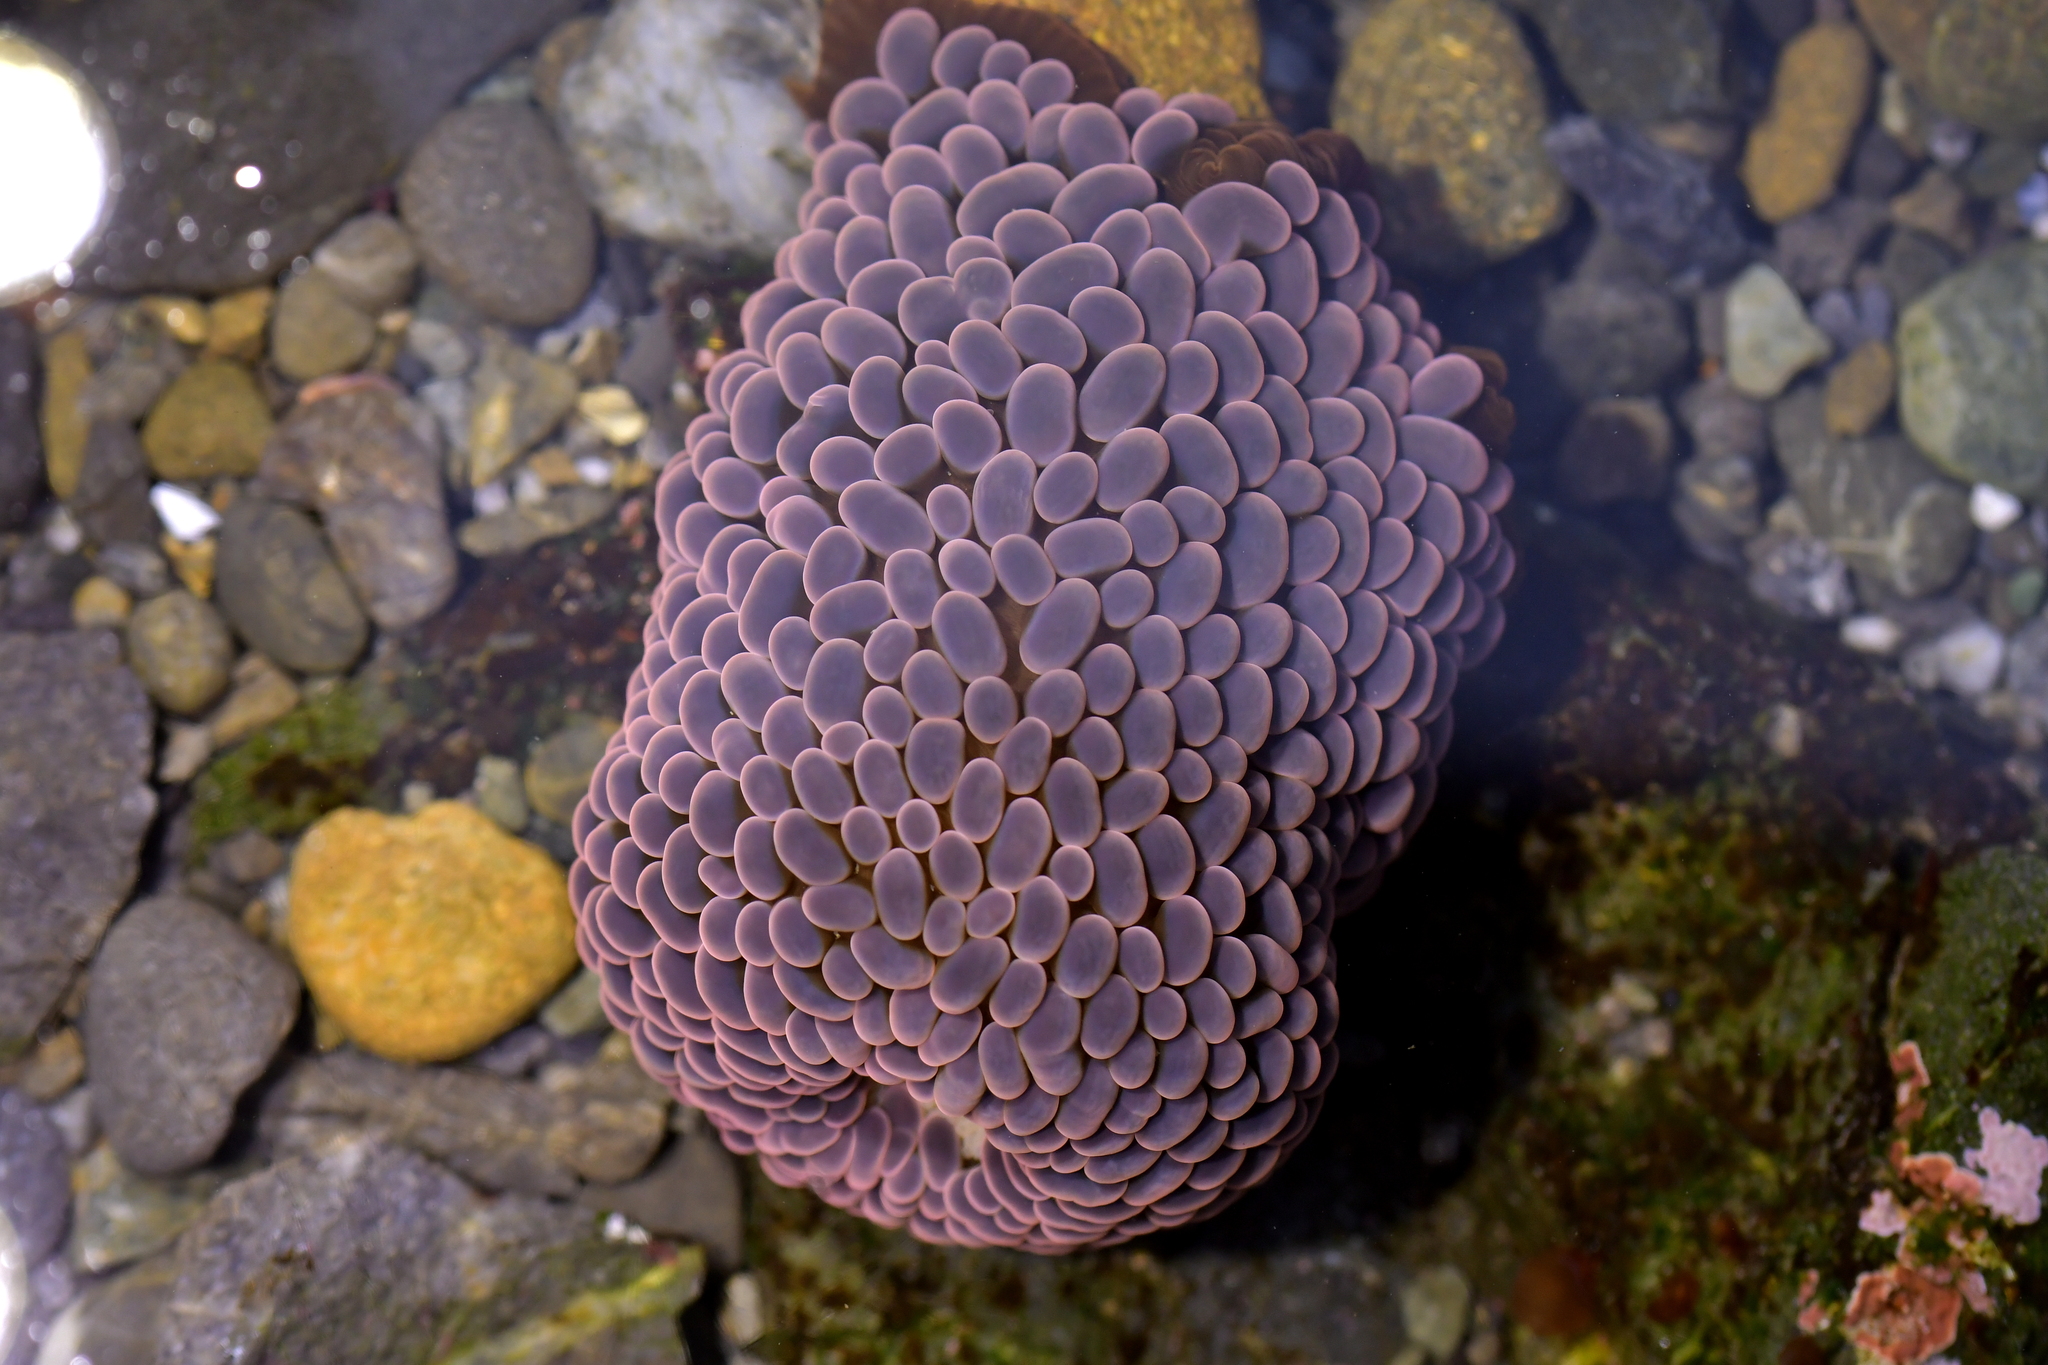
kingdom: Animalia
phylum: Cnidaria
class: Anthozoa
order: Actiniaria
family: Actiniidae
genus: Phlyctenactis
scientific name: Phlyctenactis tuberculosa
